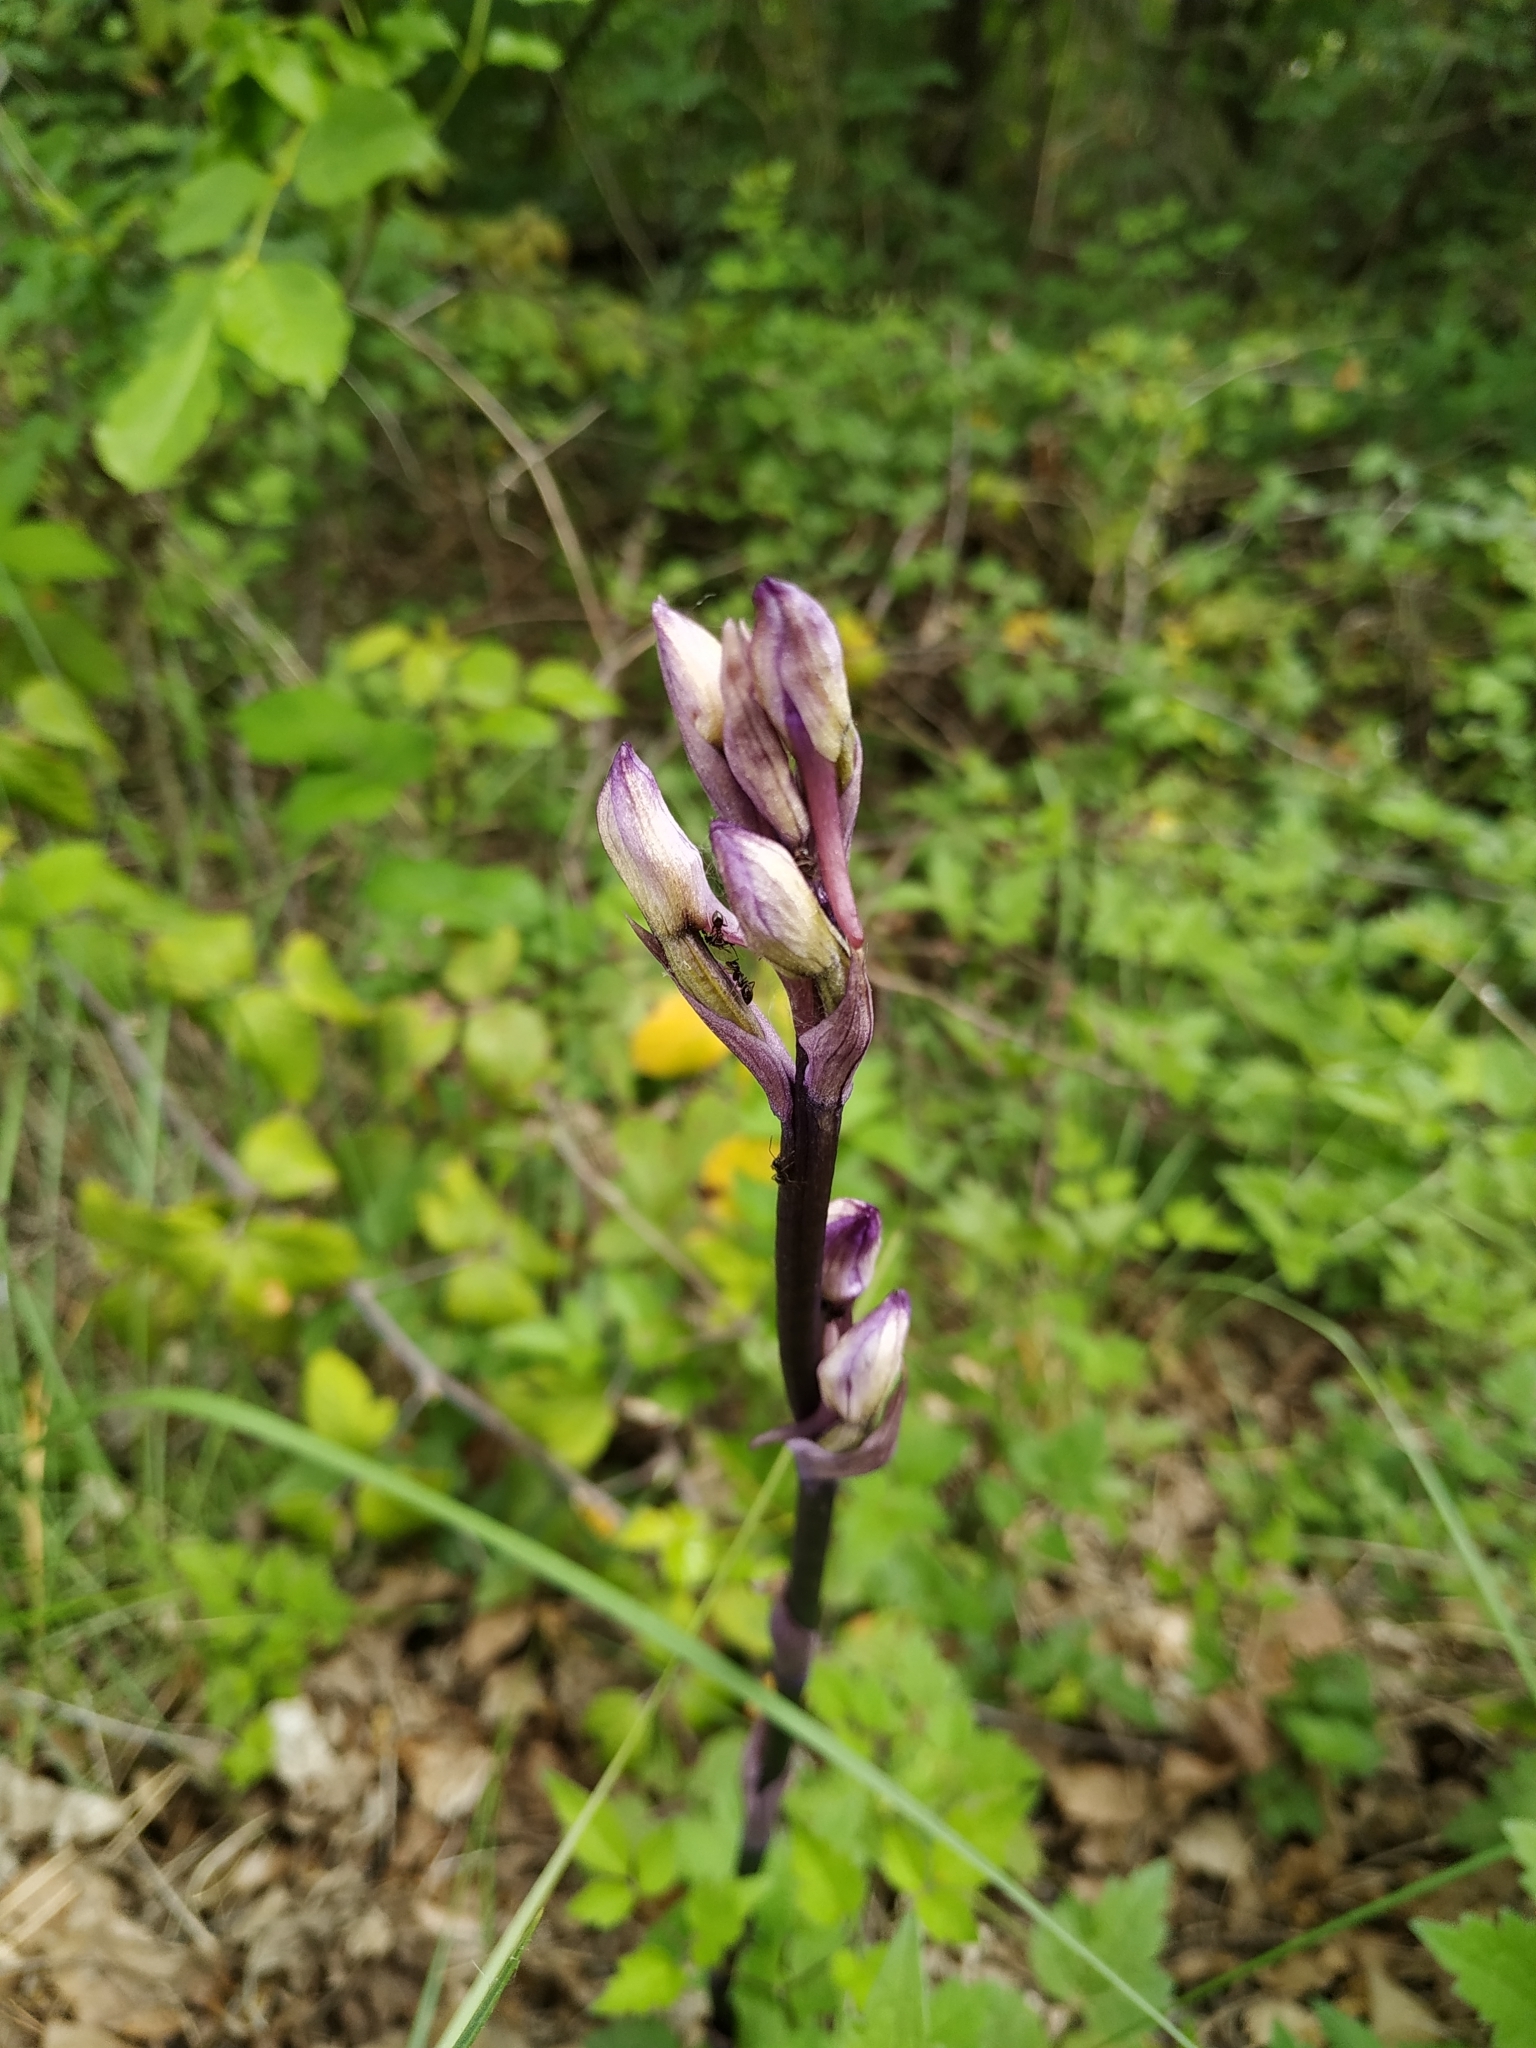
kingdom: Plantae
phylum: Tracheophyta
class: Liliopsida
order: Asparagales
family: Orchidaceae
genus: Limodorum
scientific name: Limodorum abortivum
